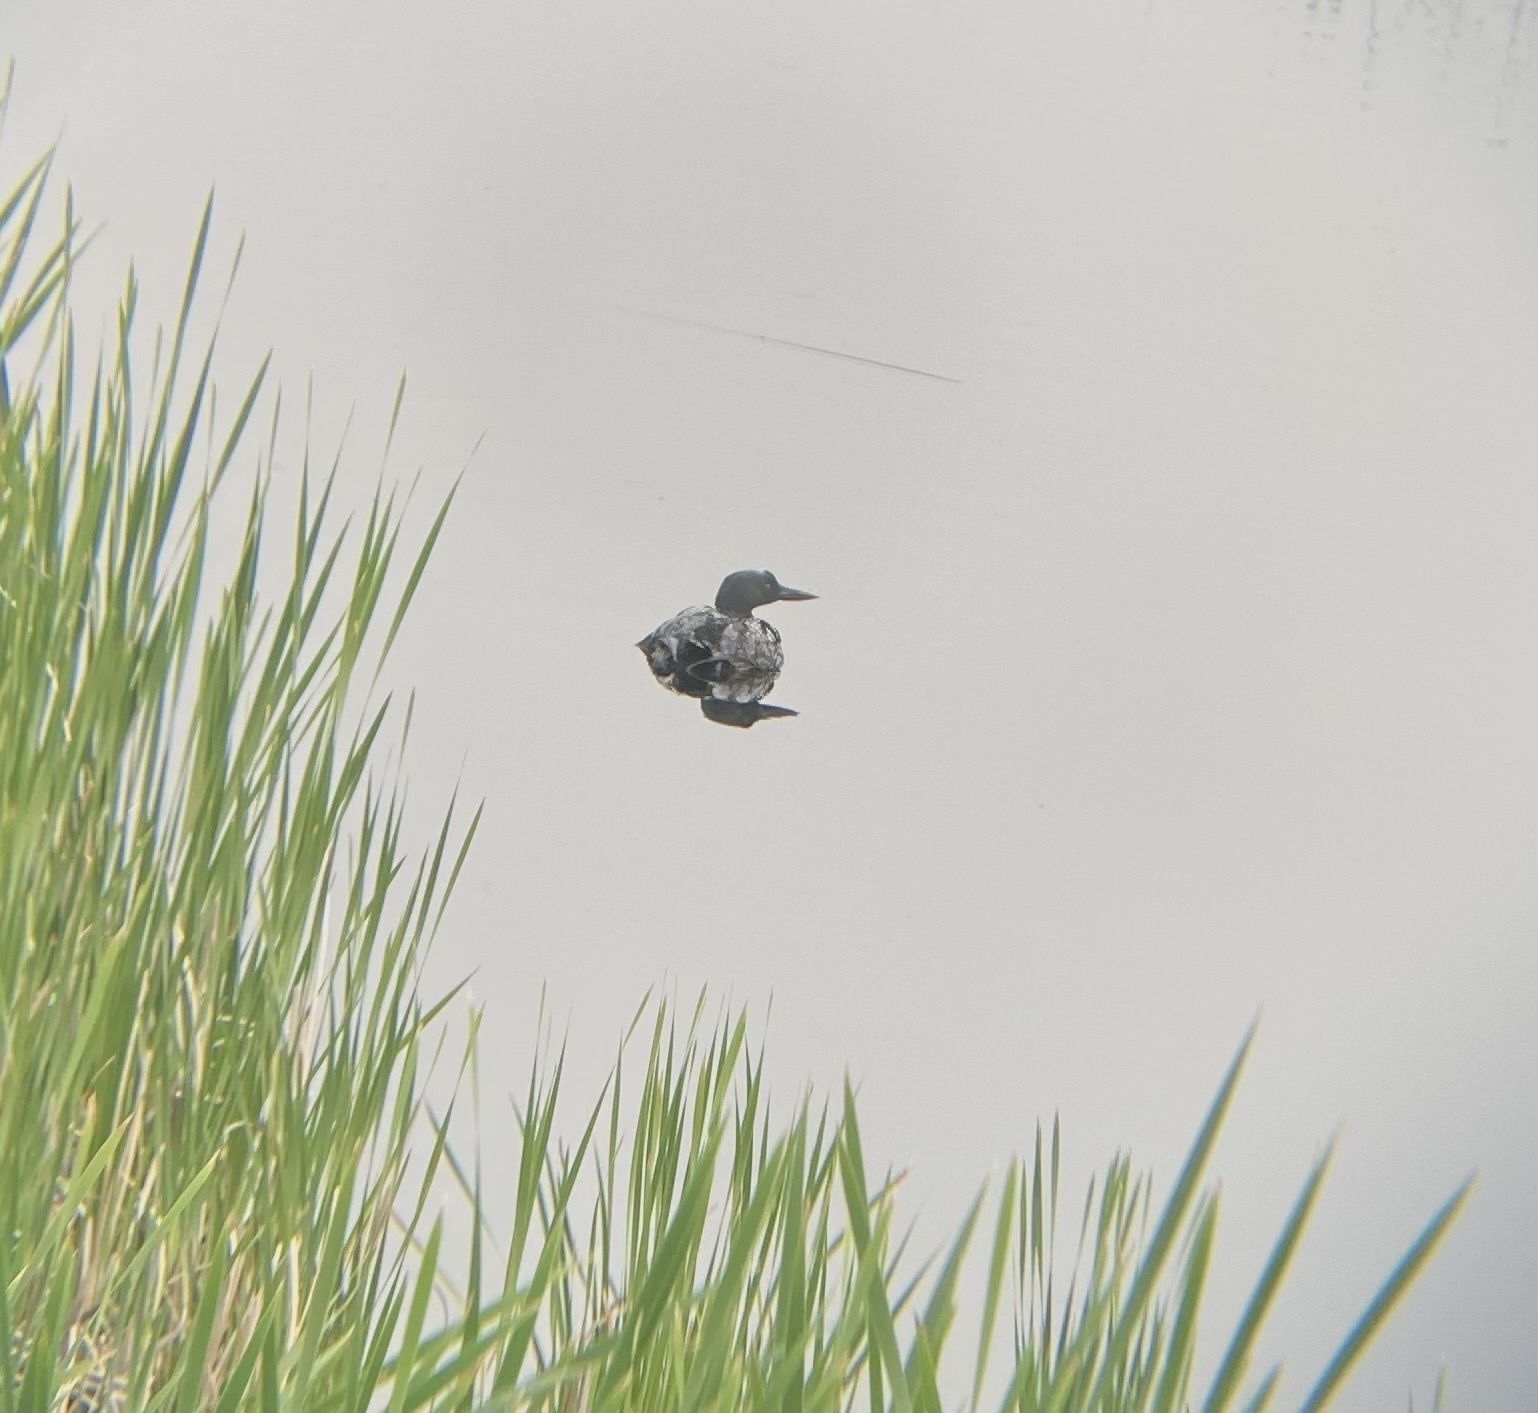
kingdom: Animalia
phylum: Chordata
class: Aves
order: Gaviiformes
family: Gaviidae
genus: Gavia
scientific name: Gavia immer
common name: Common loon
